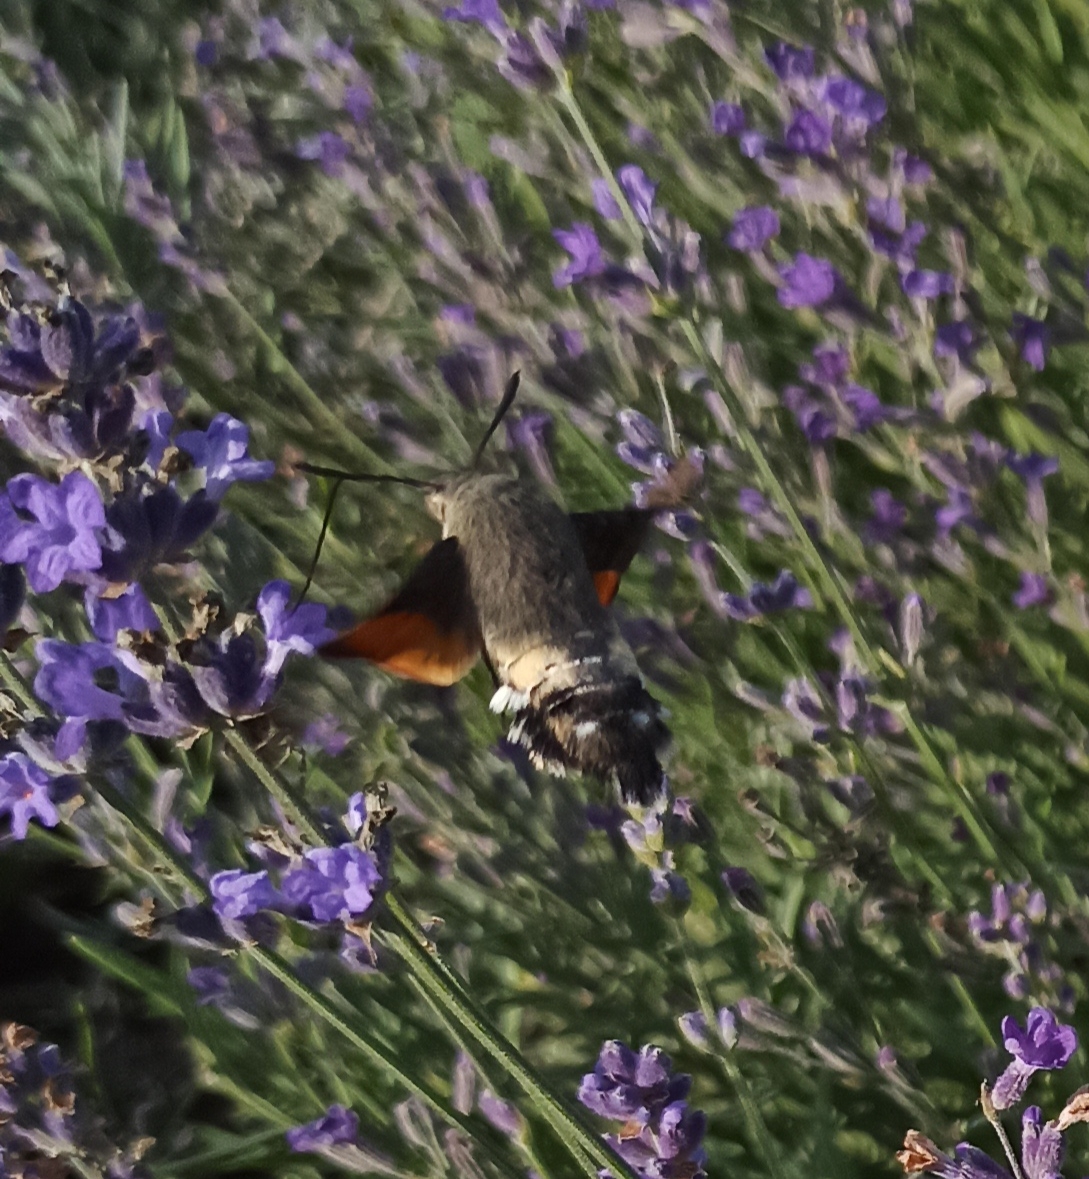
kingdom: Animalia
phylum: Arthropoda
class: Insecta
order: Lepidoptera
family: Sphingidae
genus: Macroglossum
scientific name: Macroglossum stellatarum
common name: Humming-bird hawk-moth
